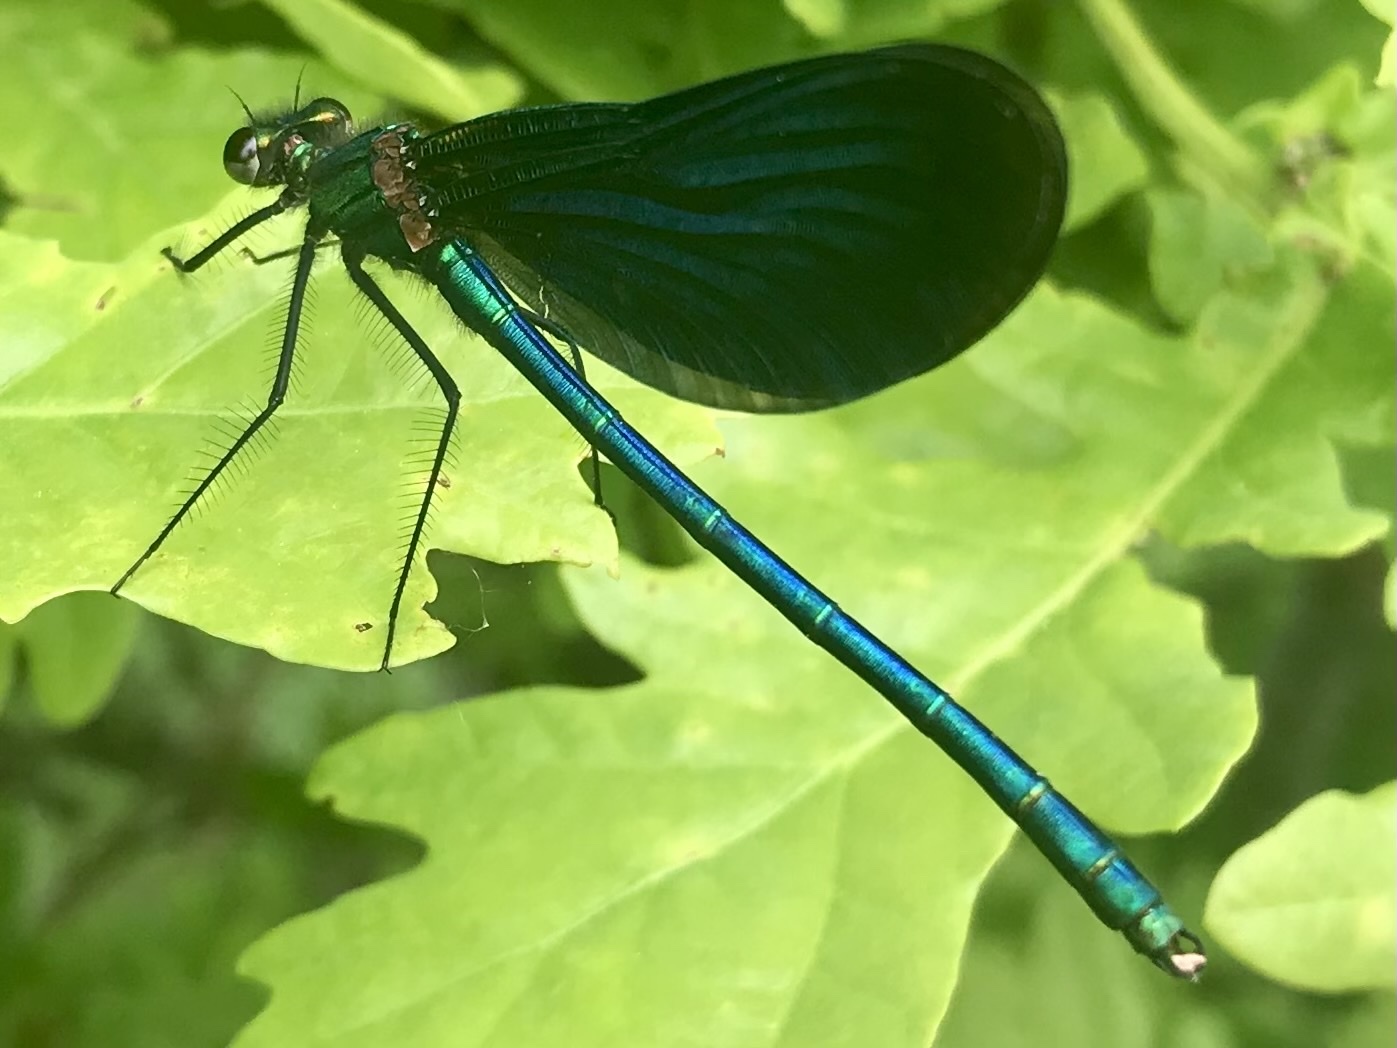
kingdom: Animalia
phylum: Arthropoda
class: Insecta
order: Odonata
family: Calopterygidae
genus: Calopteryx
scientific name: Calopteryx virgo
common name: Beautiful demoiselle
